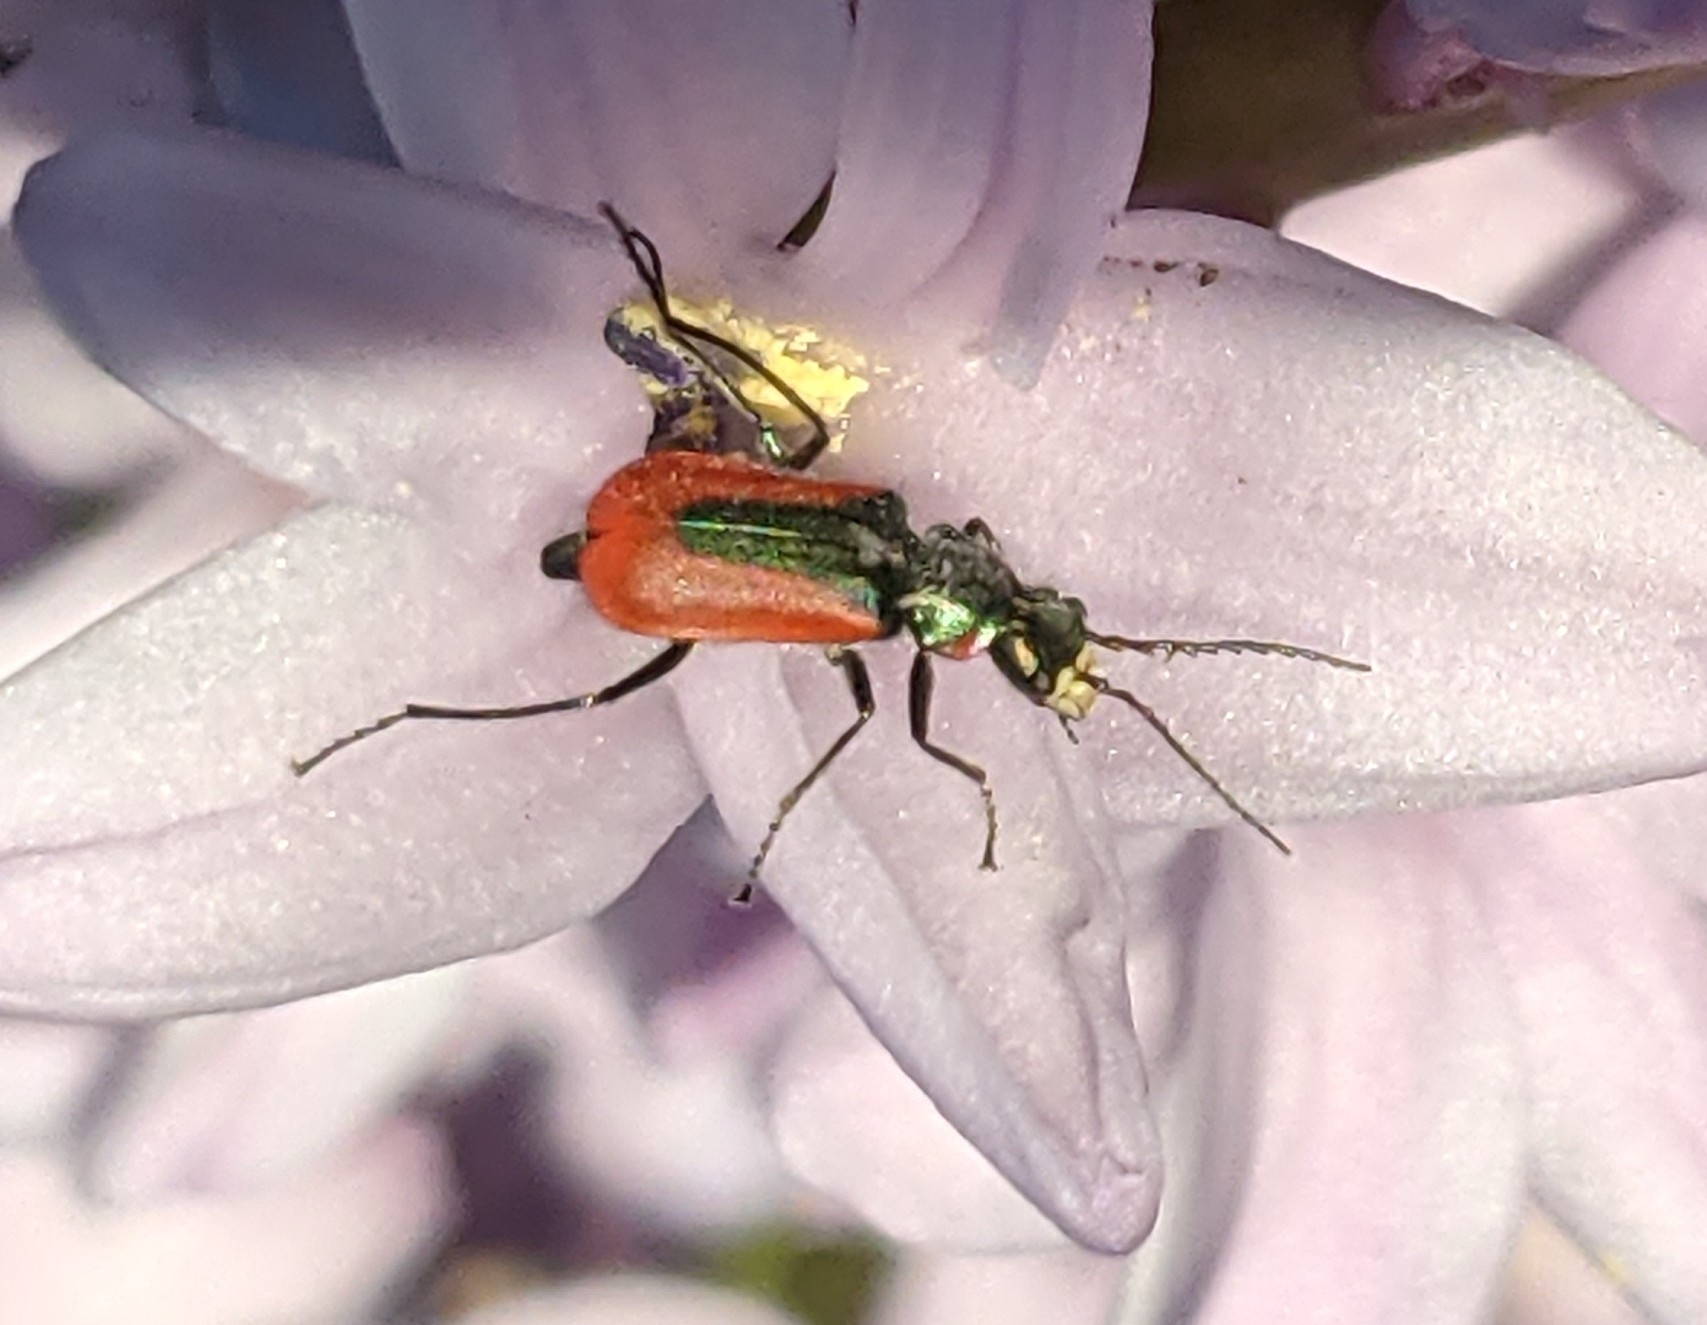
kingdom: Animalia
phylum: Arthropoda
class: Insecta
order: Coleoptera
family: Melyridae
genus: Malachius
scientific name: Malachius aeneus
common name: Scarlet malachite beetle
